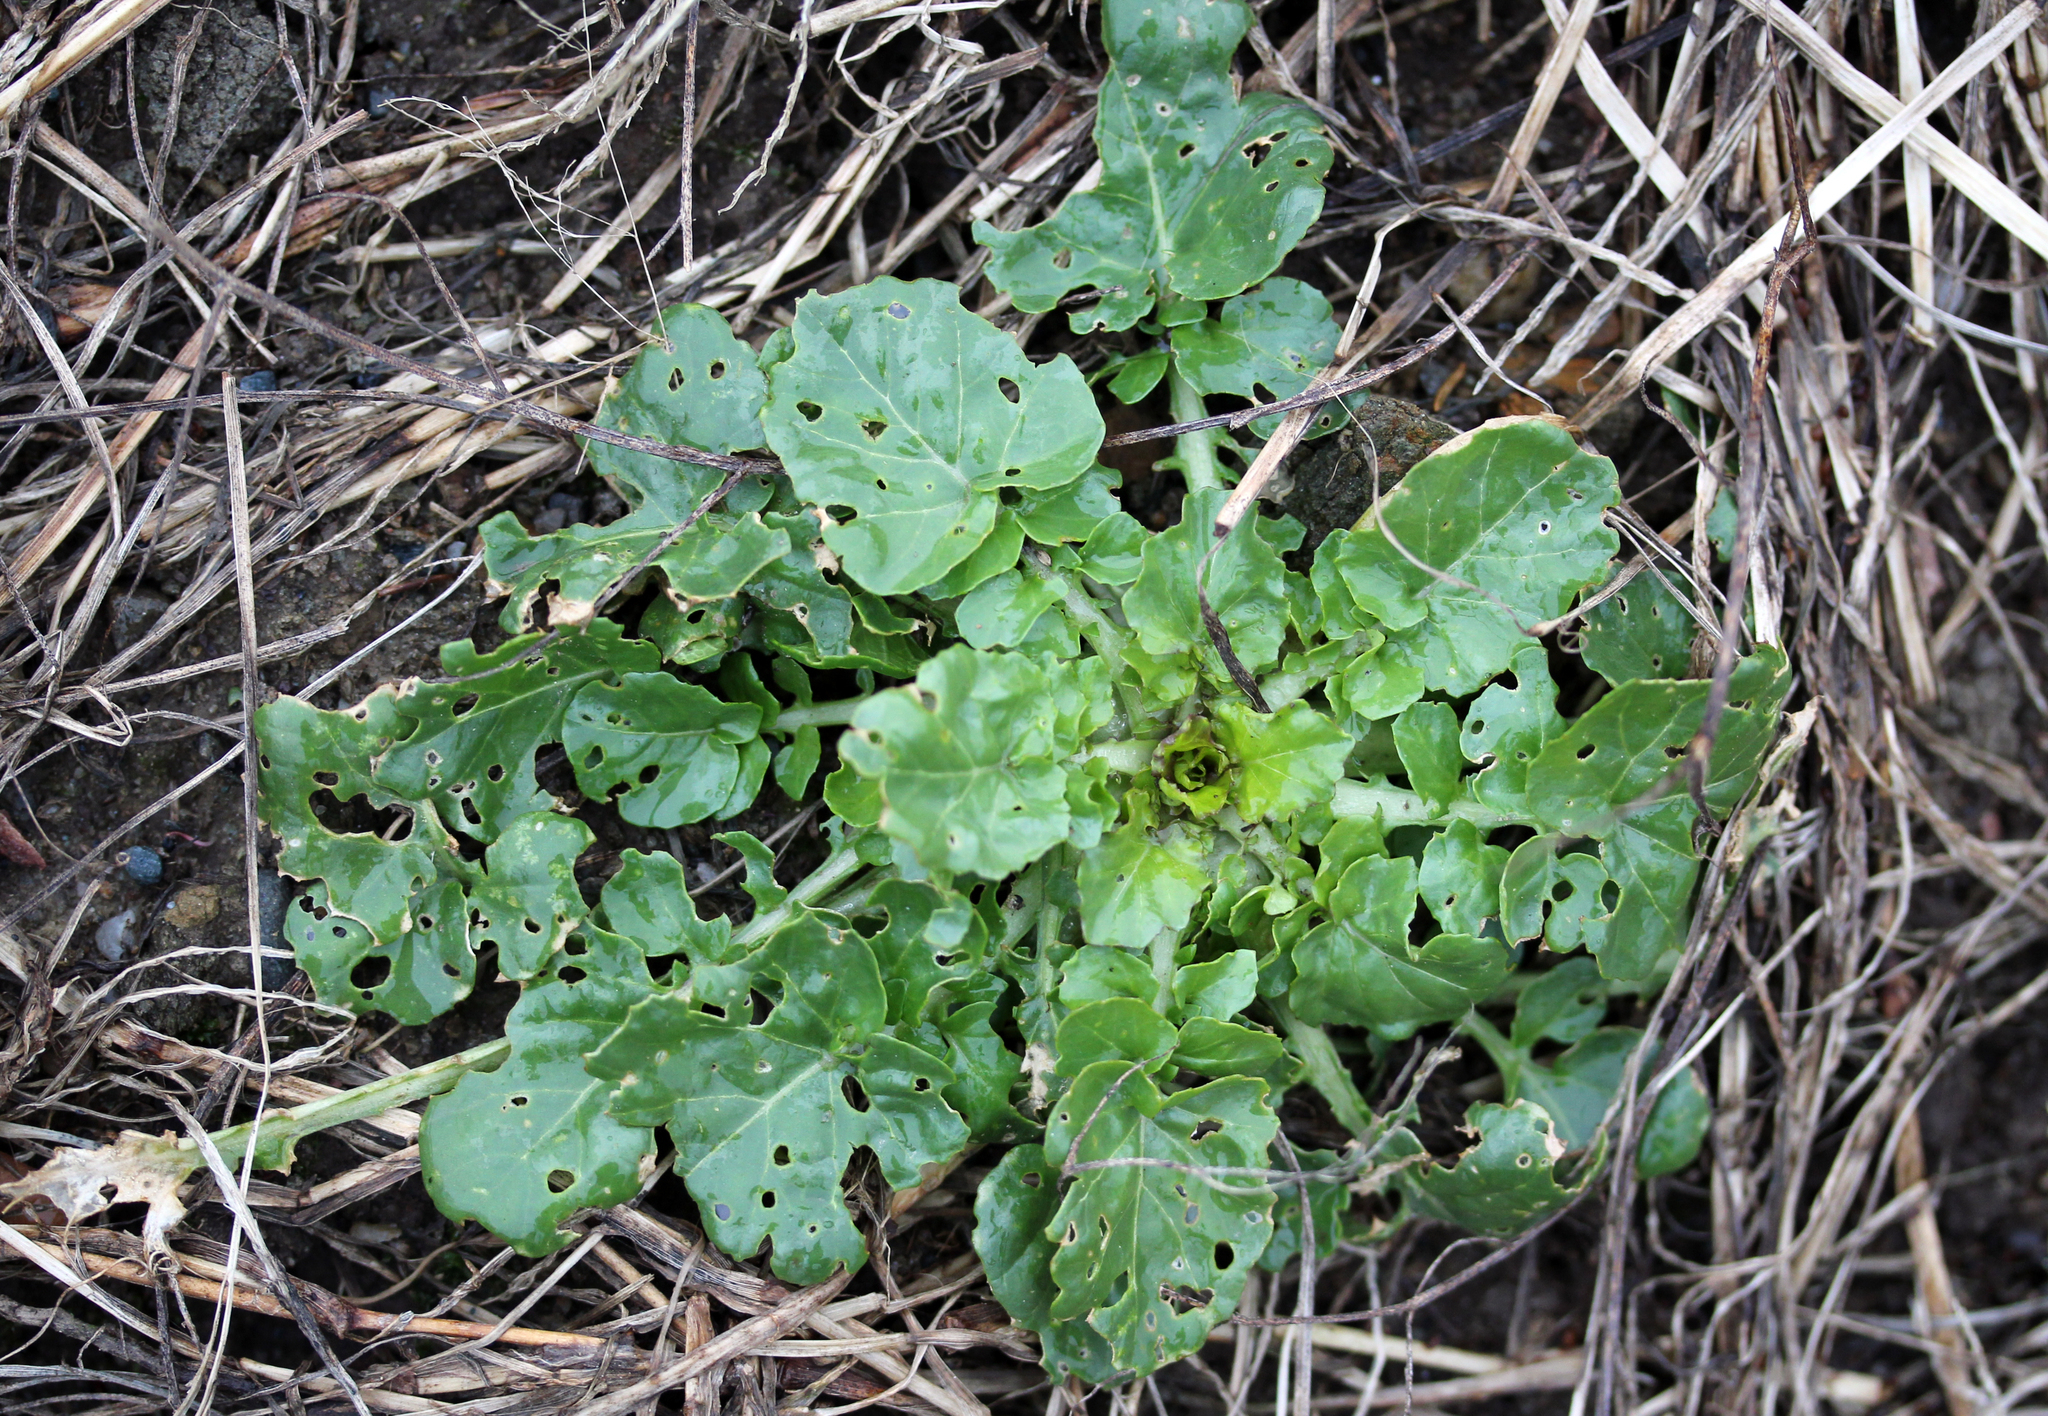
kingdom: Plantae
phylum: Tracheophyta
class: Magnoliopsida
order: Brassicales
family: Brassicaceae
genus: Barbarea
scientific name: Barbarea vulgaris
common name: Cressy-greens
